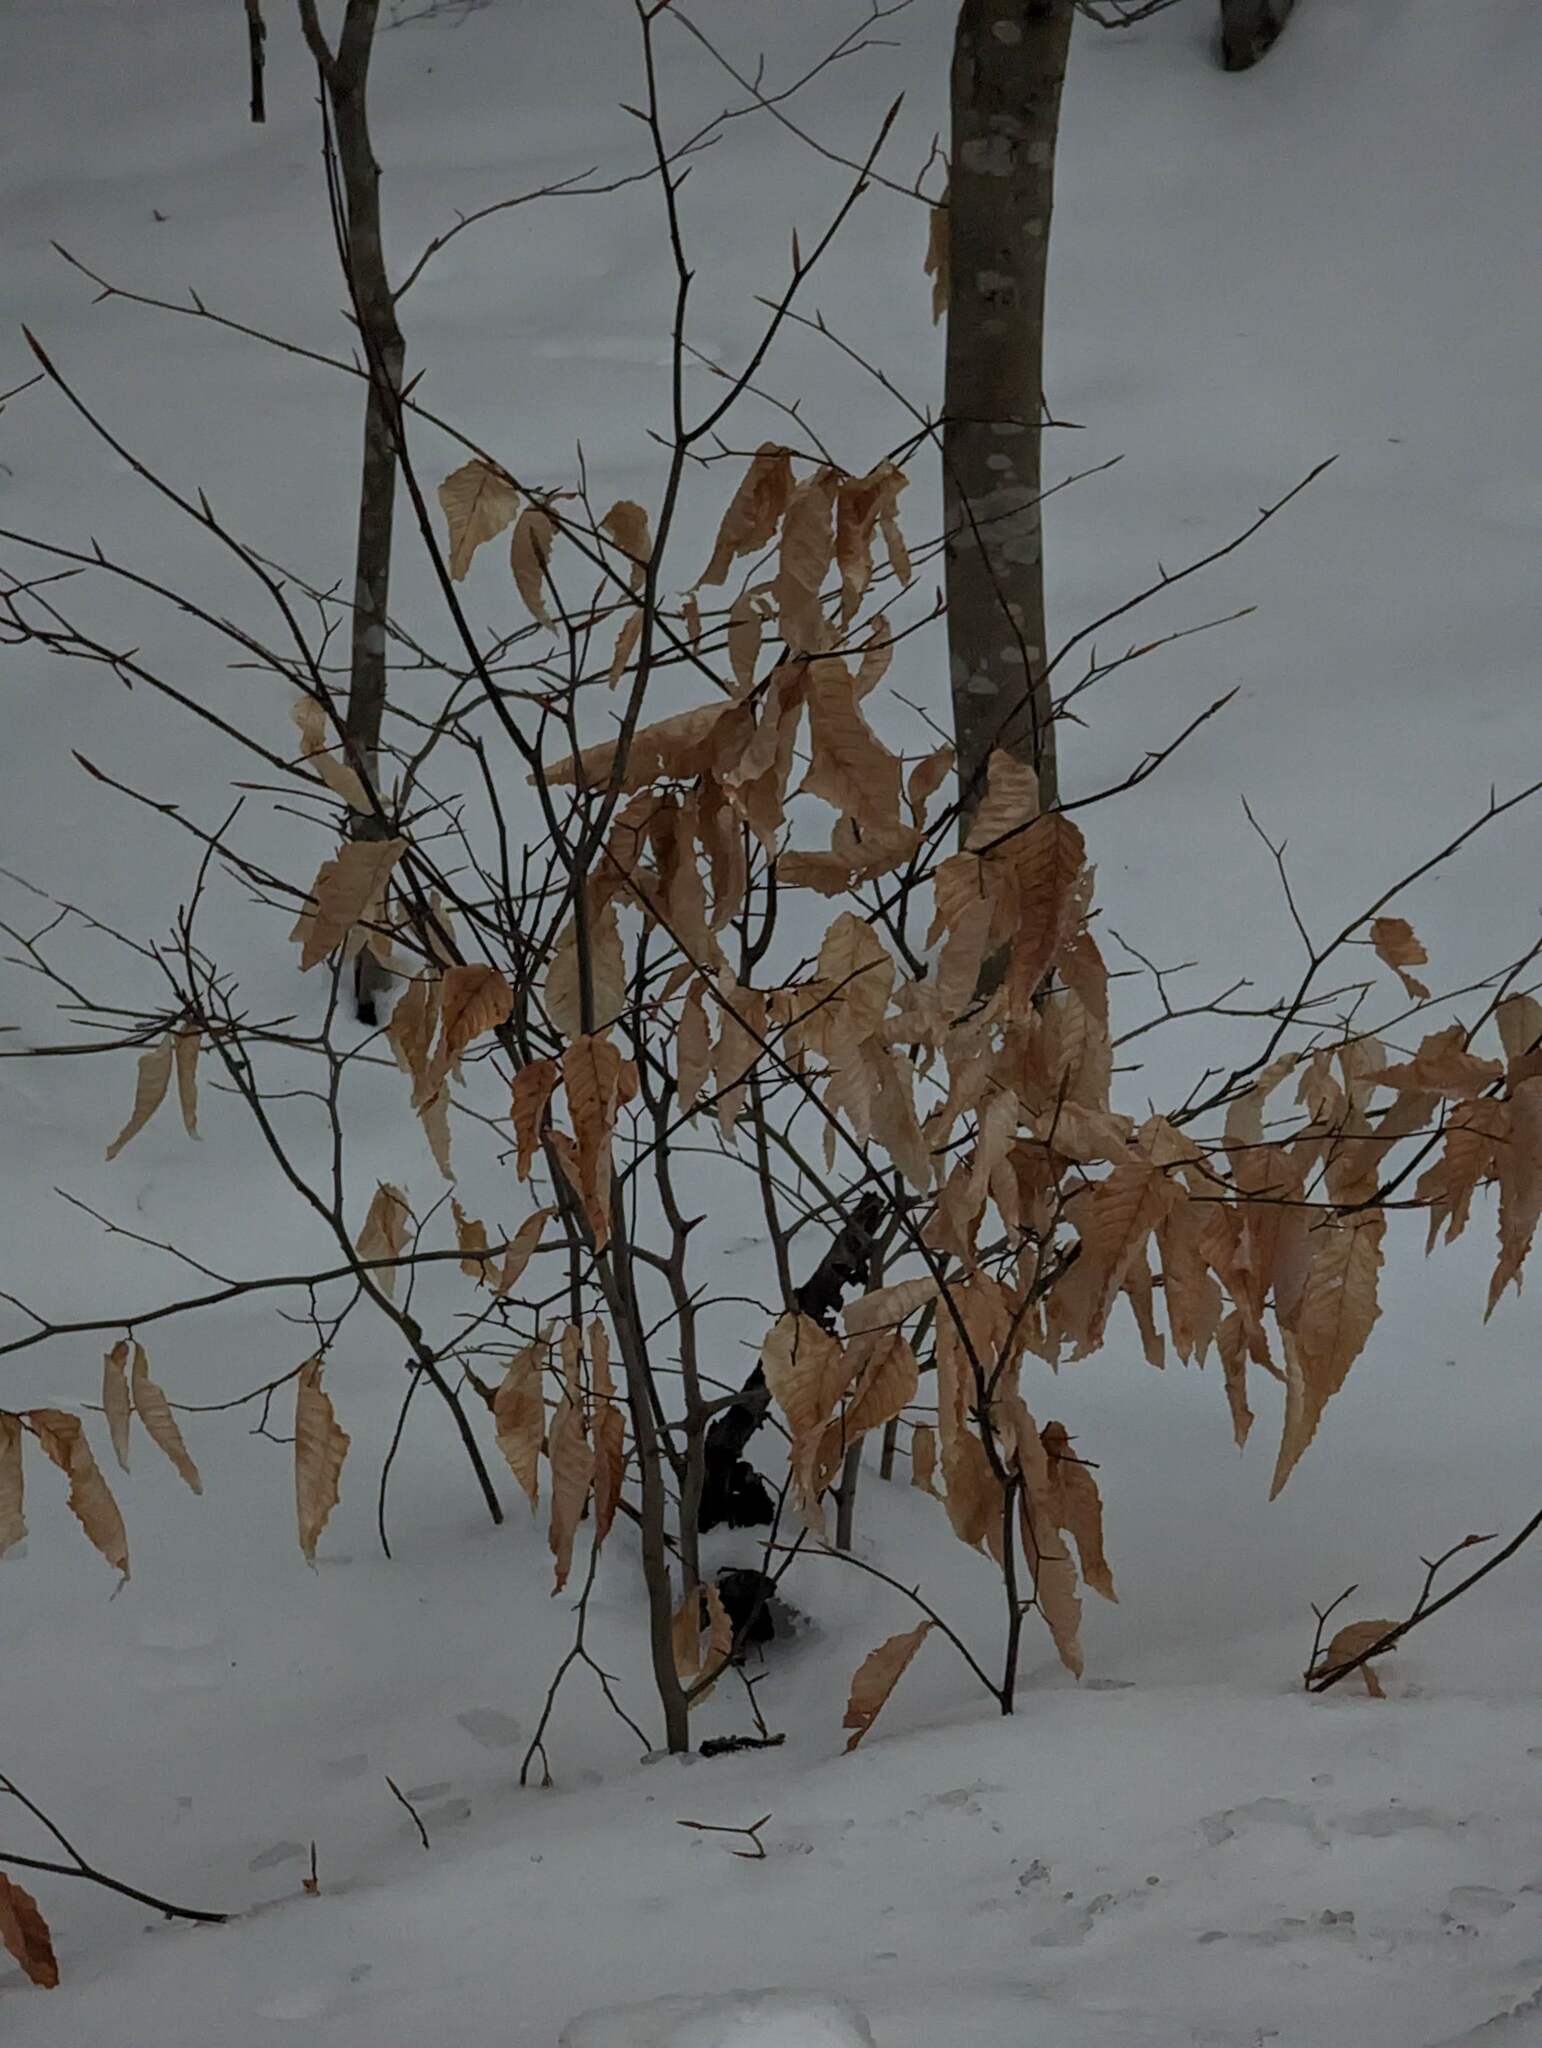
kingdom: Plantae
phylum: Tracheophyta
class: Magnoliopsida
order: Fagales
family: Fagaceae
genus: Fagus
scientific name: Fagus grandifolia
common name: American beech
